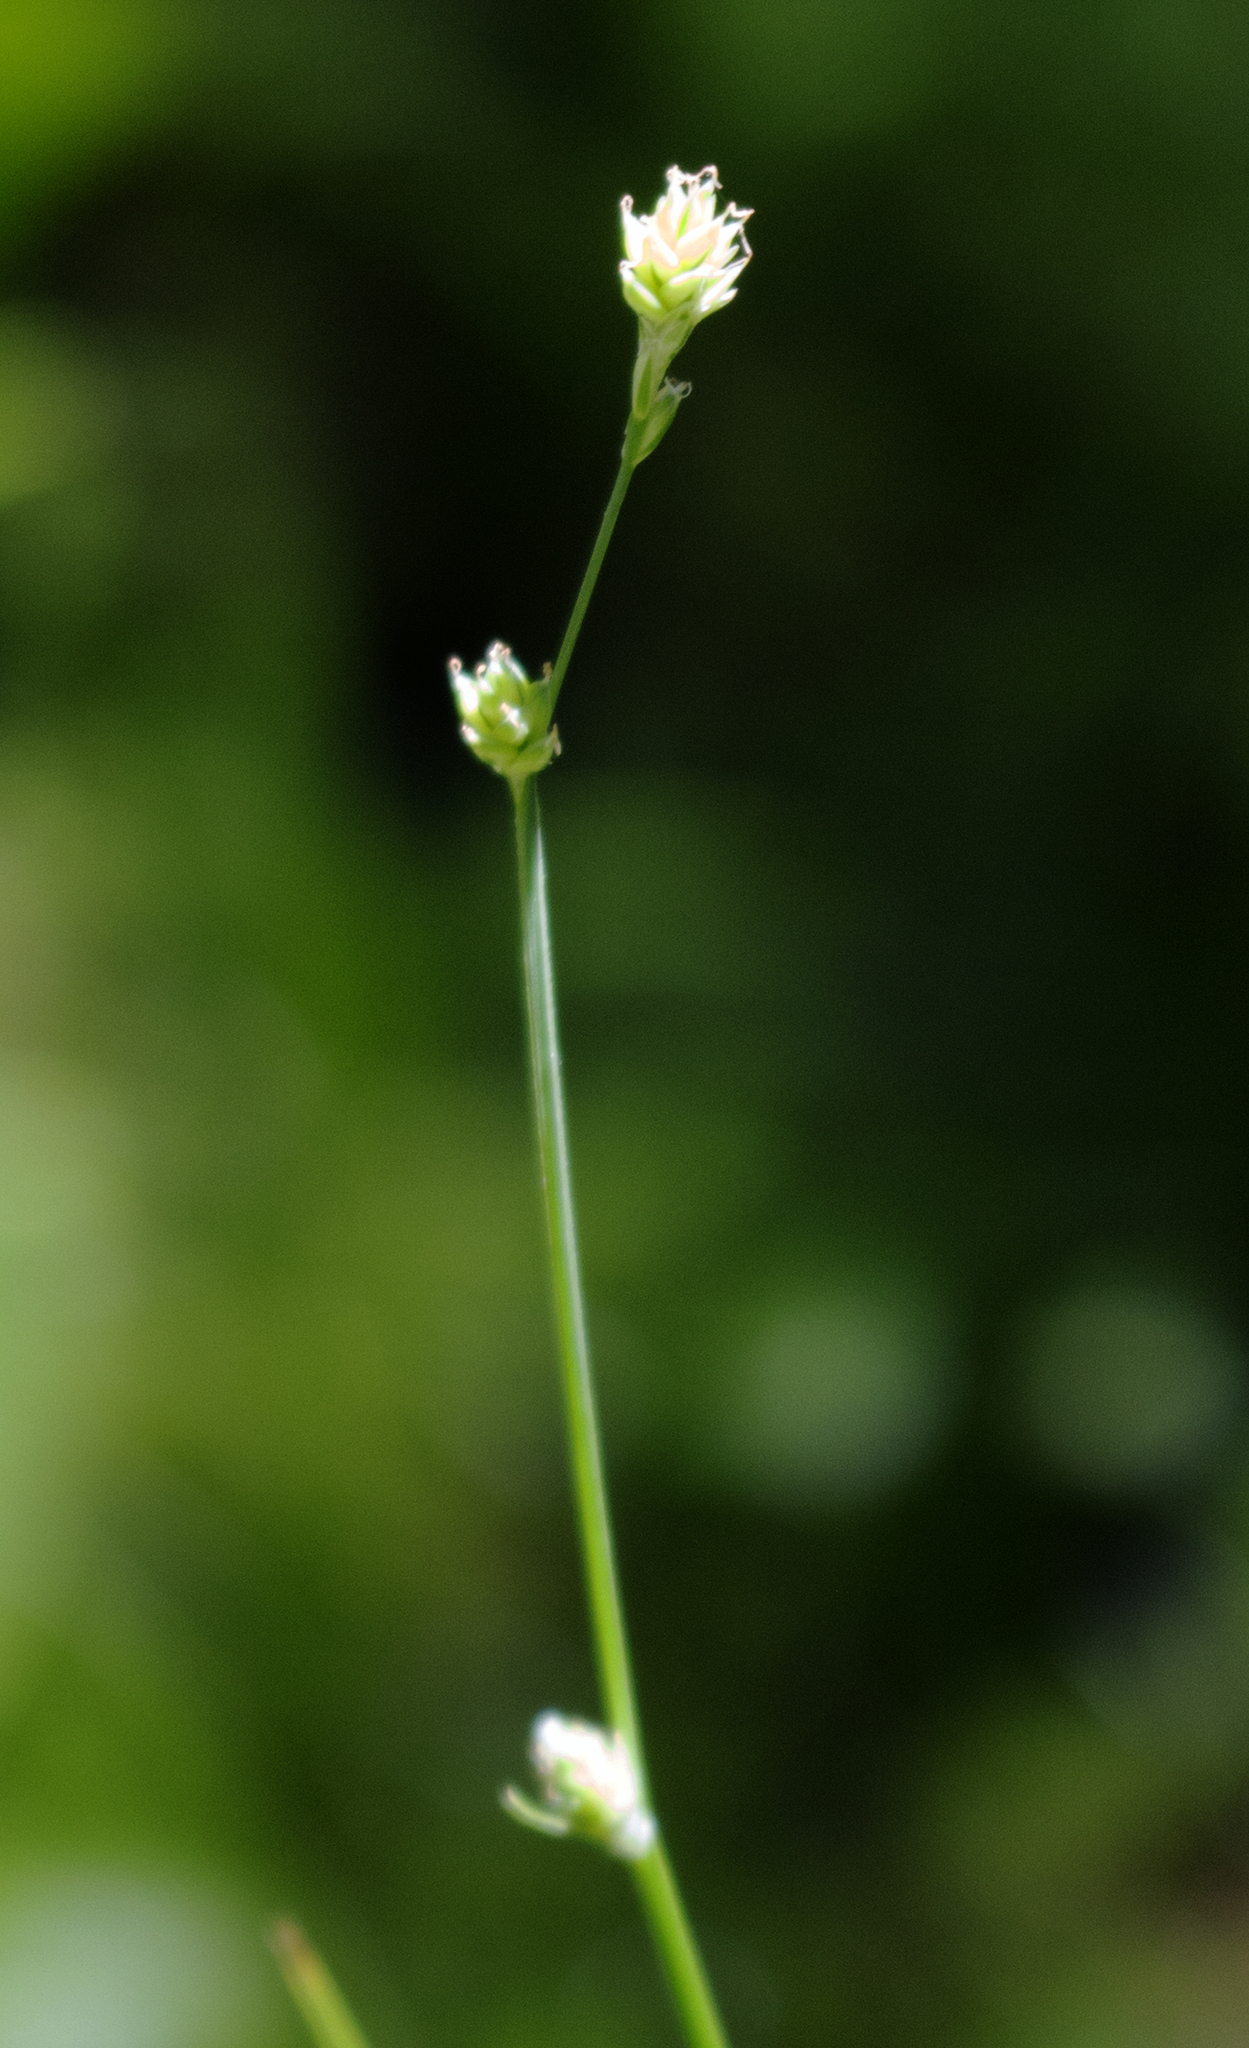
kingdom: Plantae
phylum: Tracheophyta
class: Liliopsida
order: Poales
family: Cyperaceae
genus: Carex
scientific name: Carex brunnescens
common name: Brown sedge
